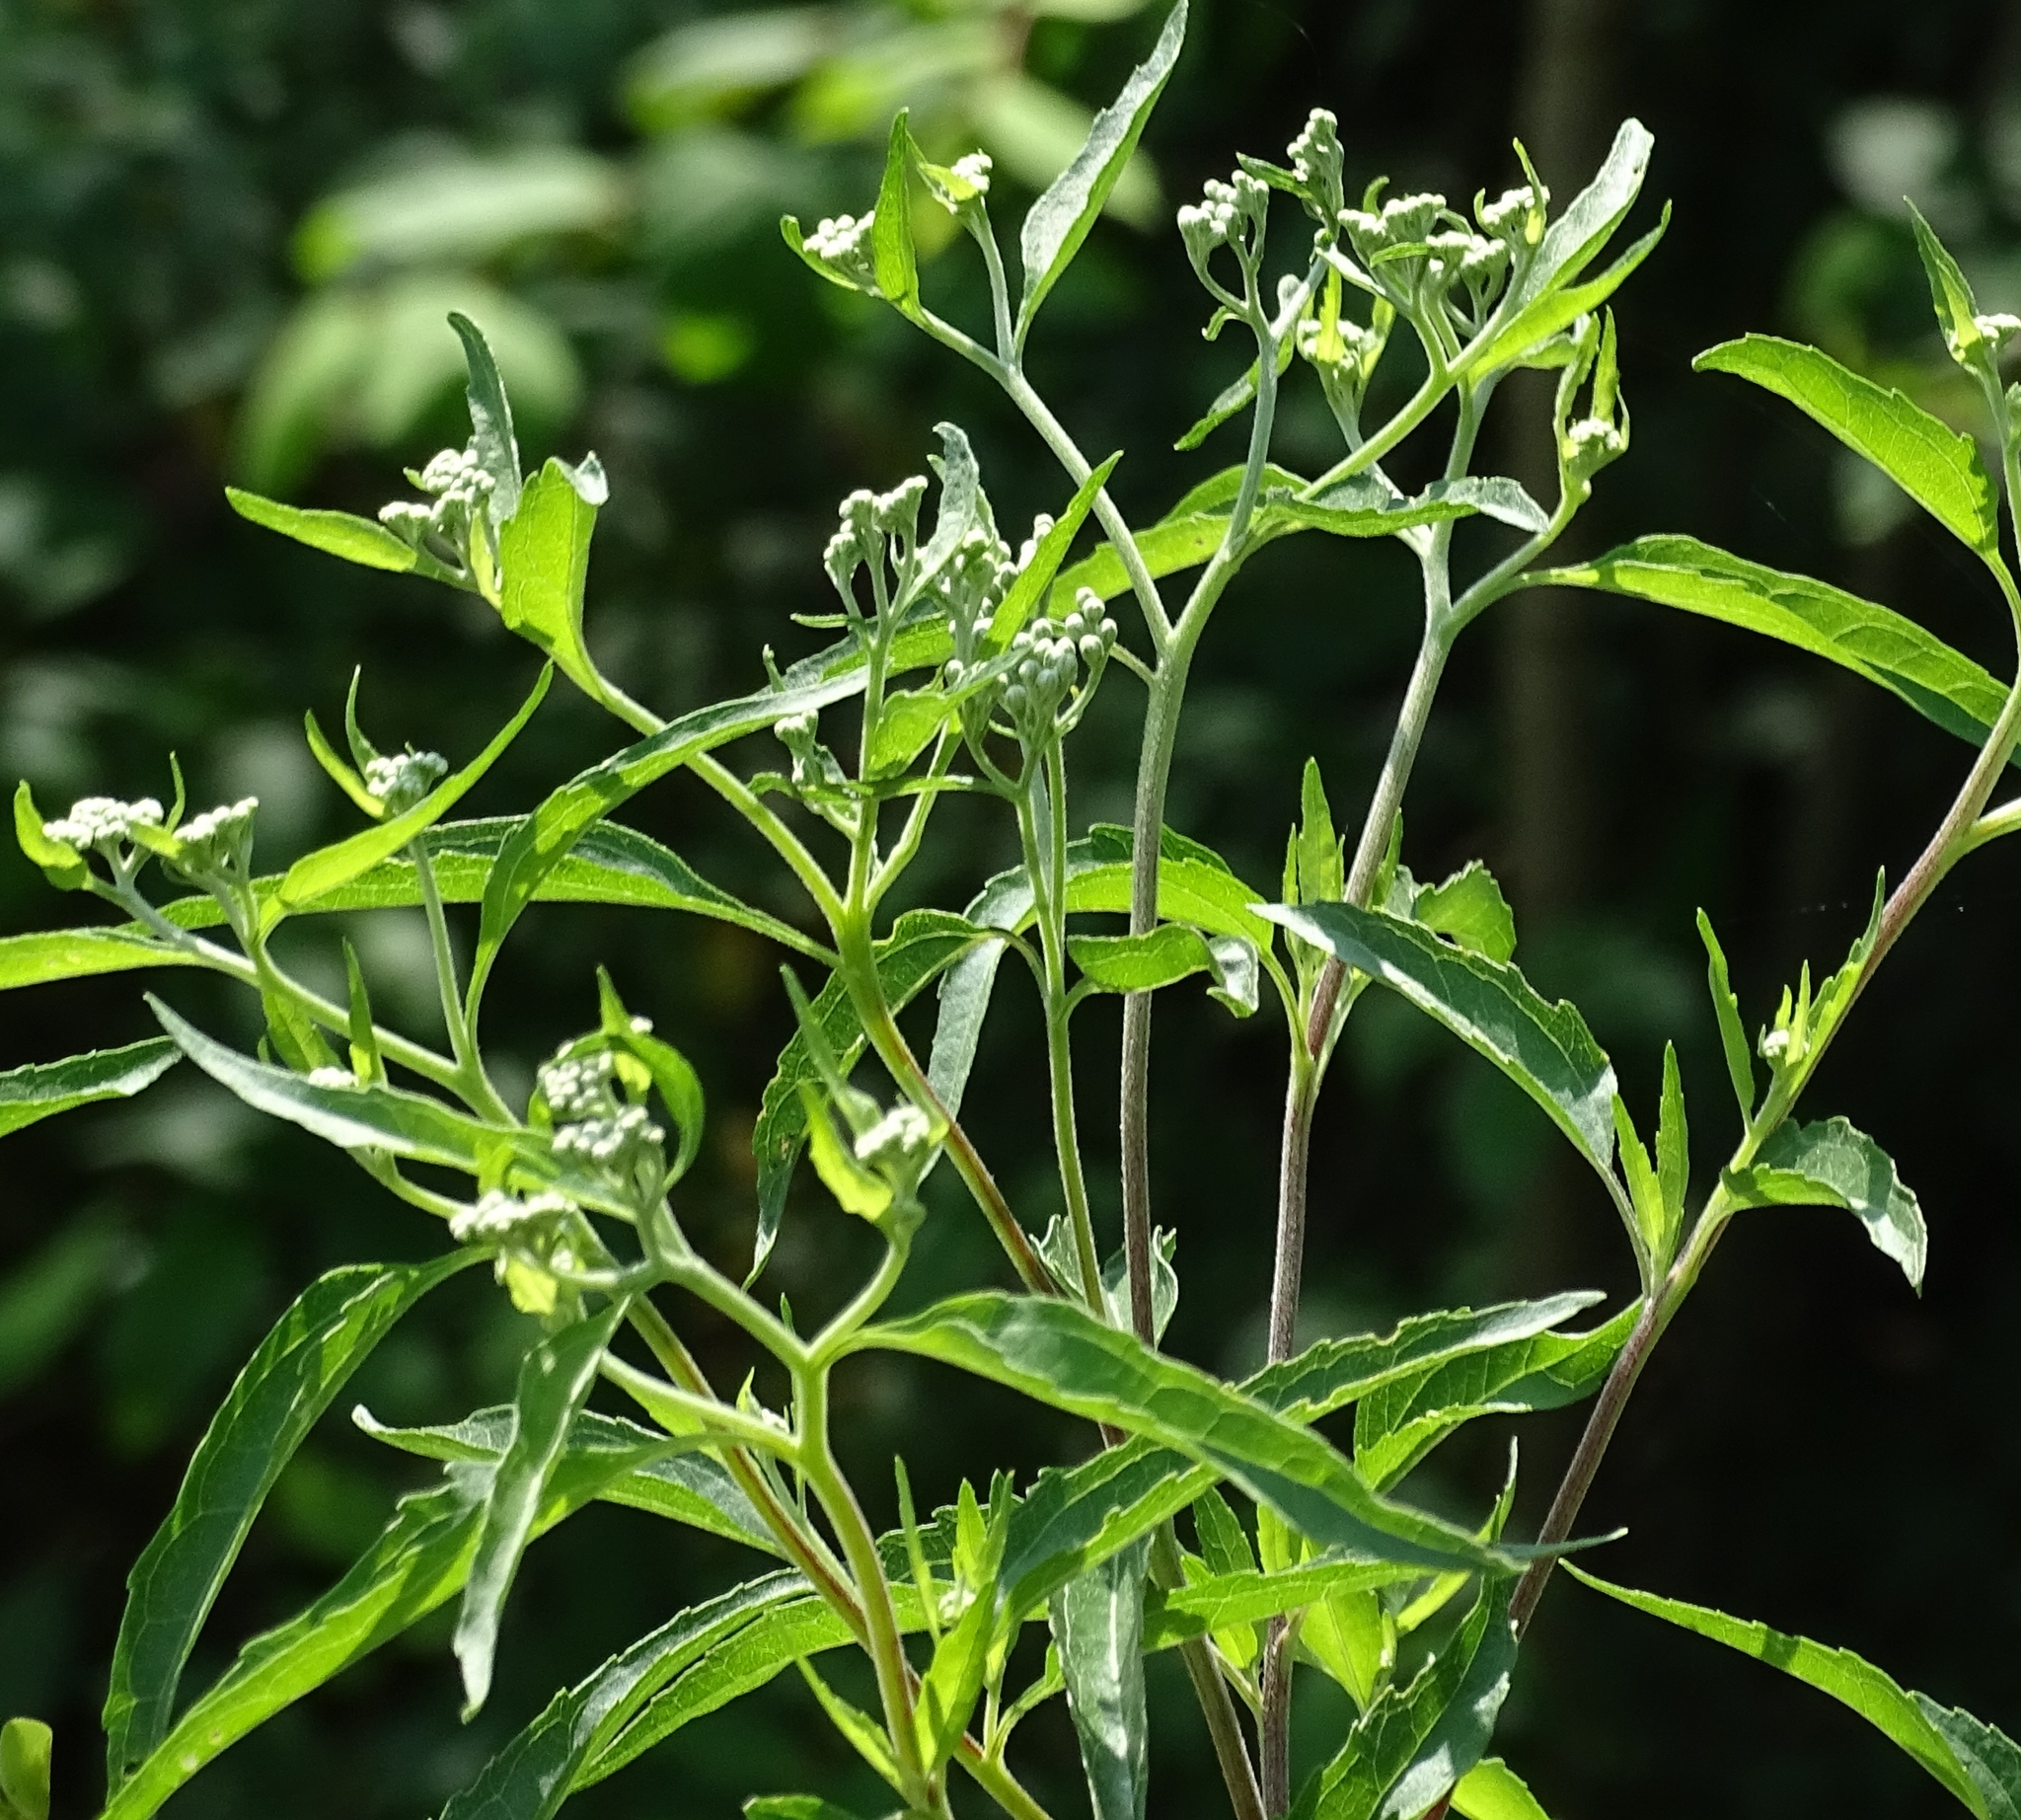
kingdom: Plantae
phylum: Tracheophyta
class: Magnoliopsida
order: Asterales
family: Asteraceae
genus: Eupatorium
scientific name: Eupatorium serotinum
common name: Late boneset
